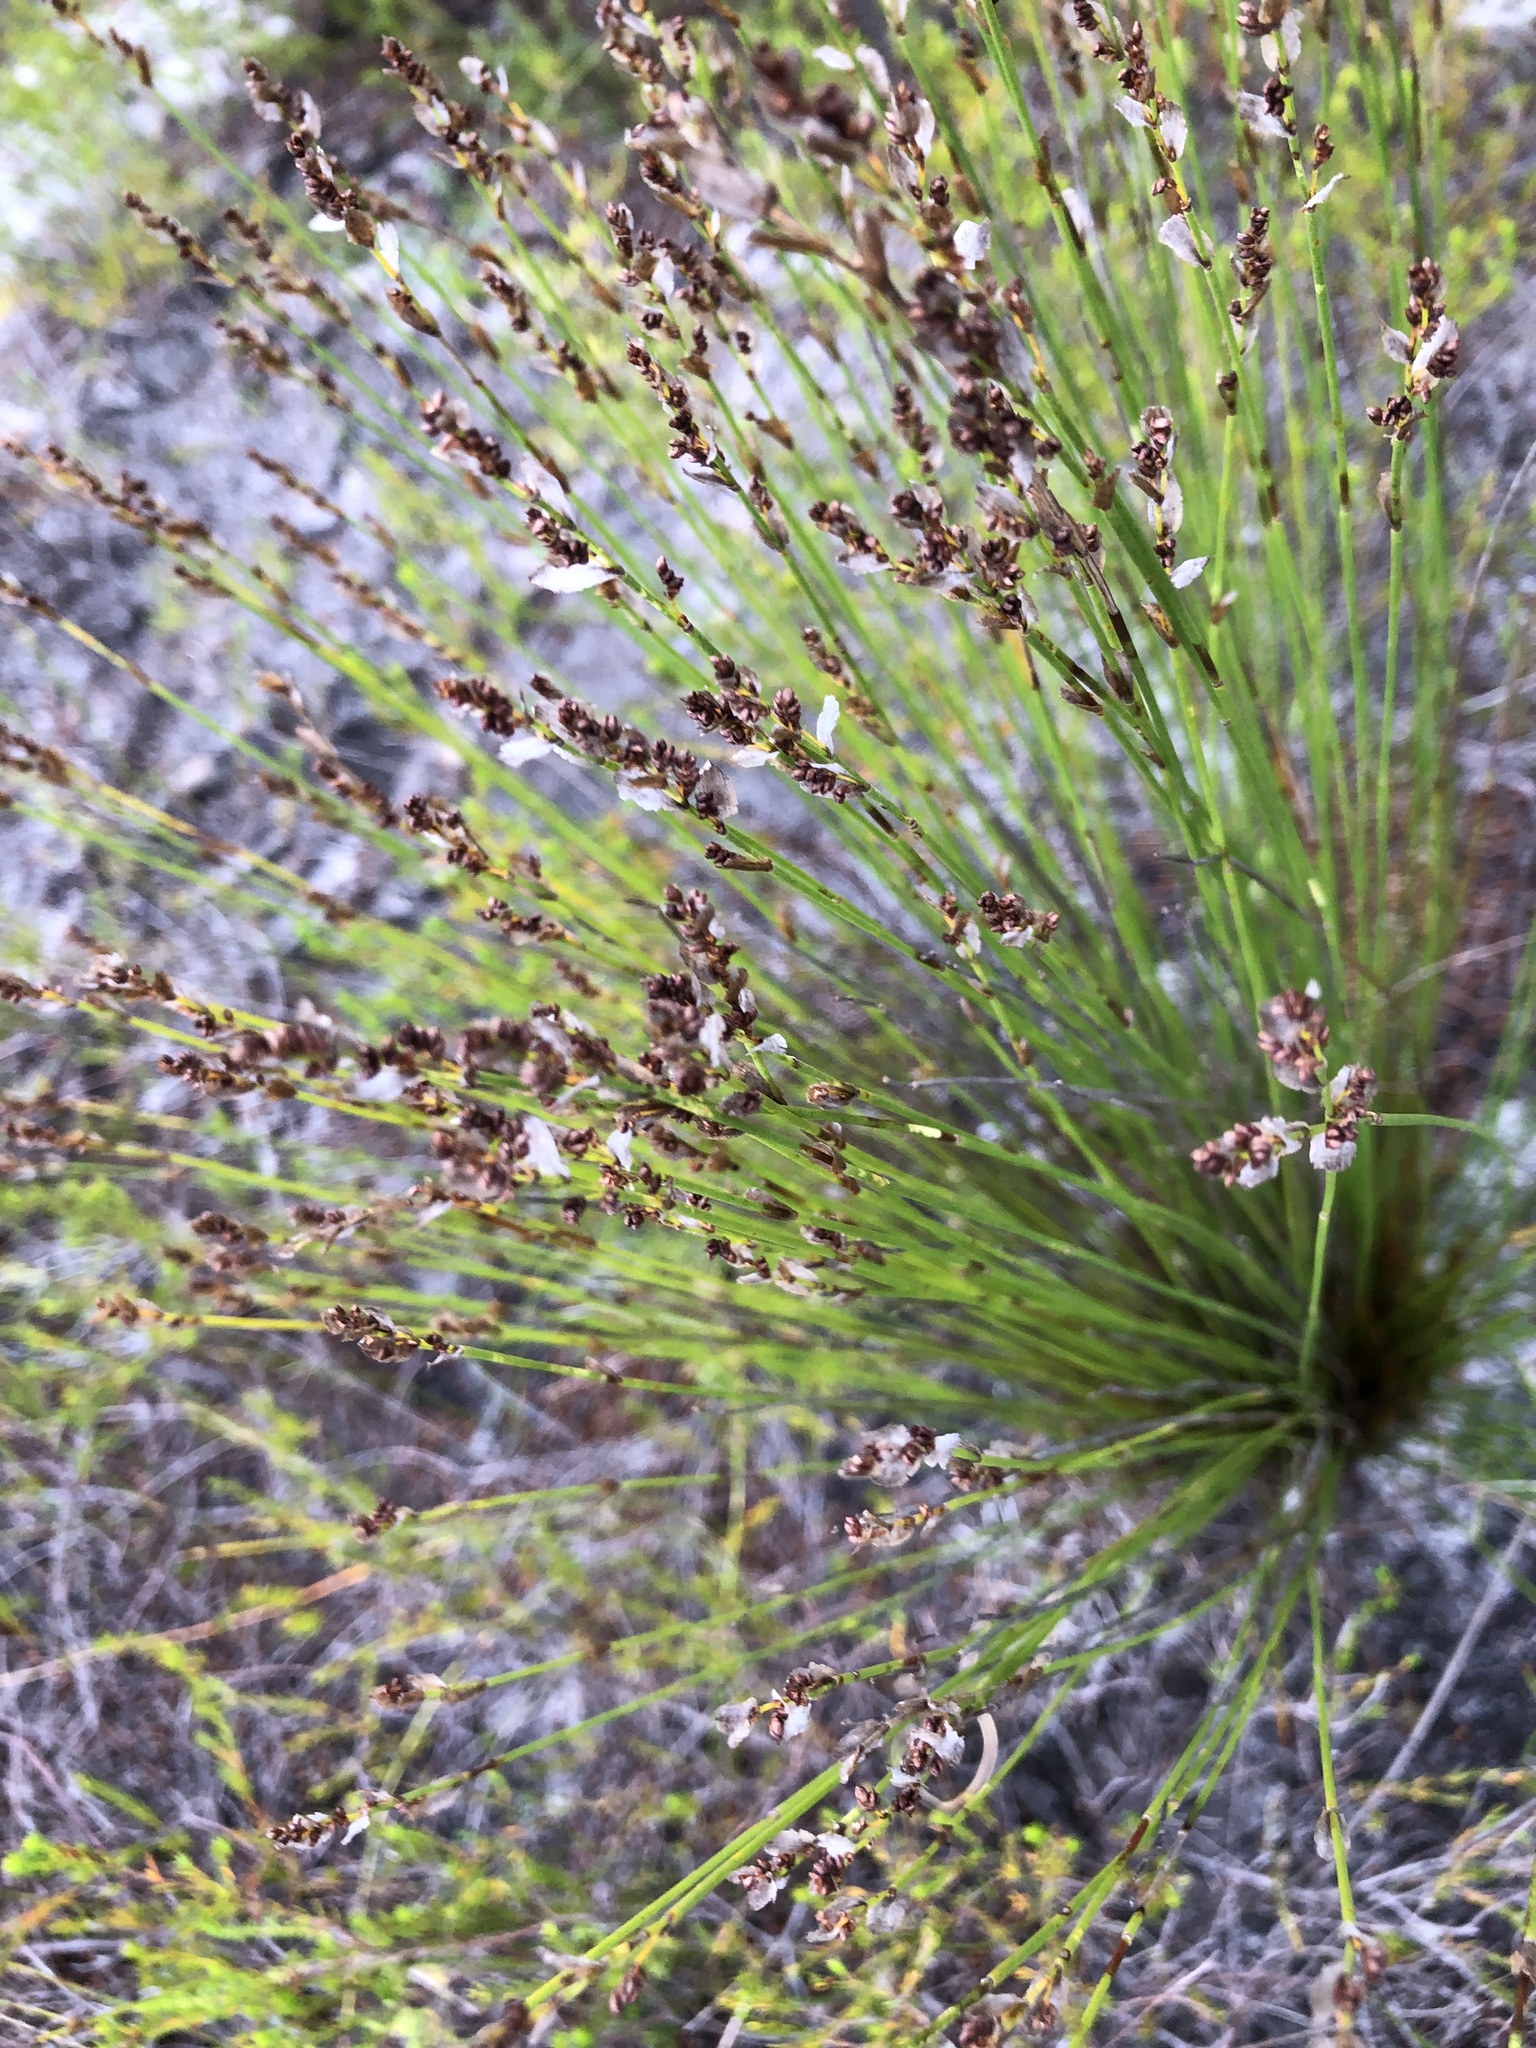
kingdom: Plantae
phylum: Tracheophyta
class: Liliopsida
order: Poales
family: Restionaceae
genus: Elegia
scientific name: Elegia filacea
